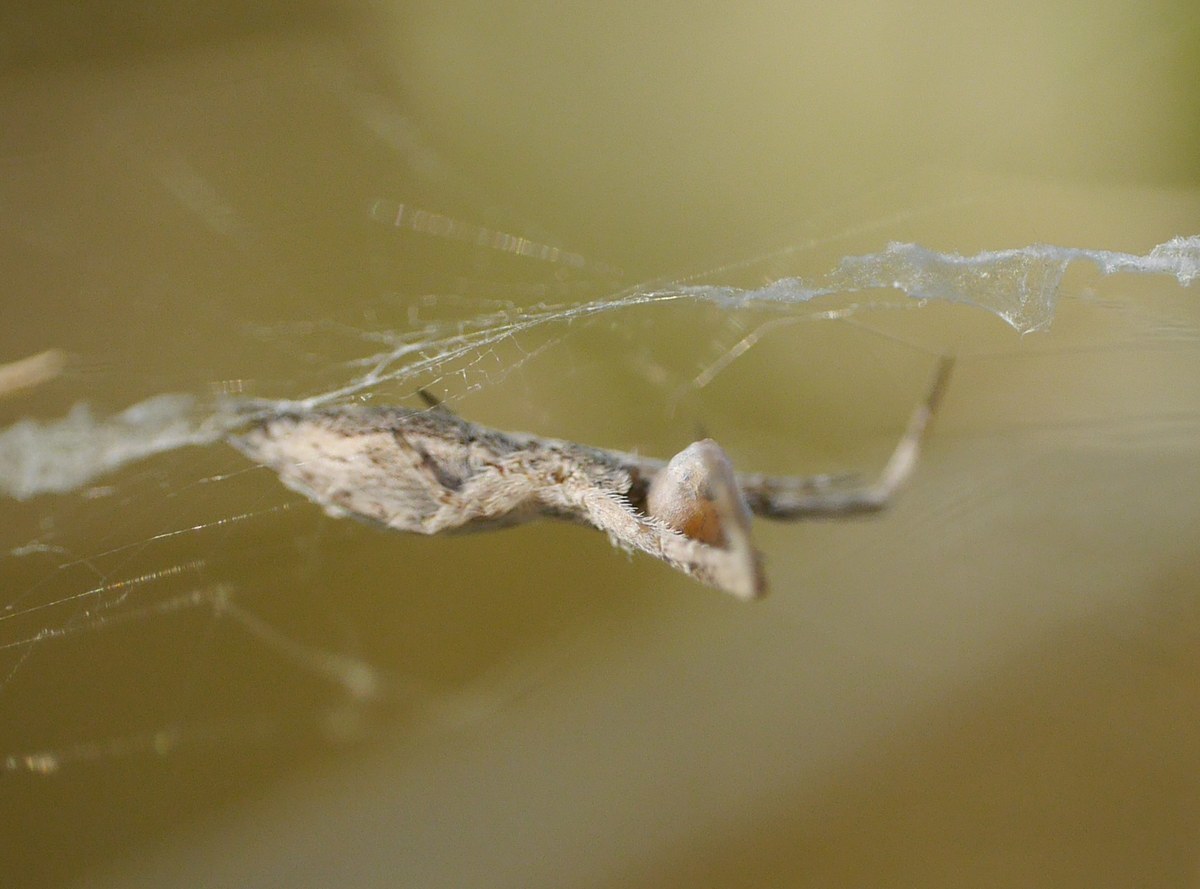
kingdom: Animalia
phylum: Arthropoda
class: Arachnida
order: Araneae
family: Uloboridae
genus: Uloborus
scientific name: Uloborus walckenaerius
